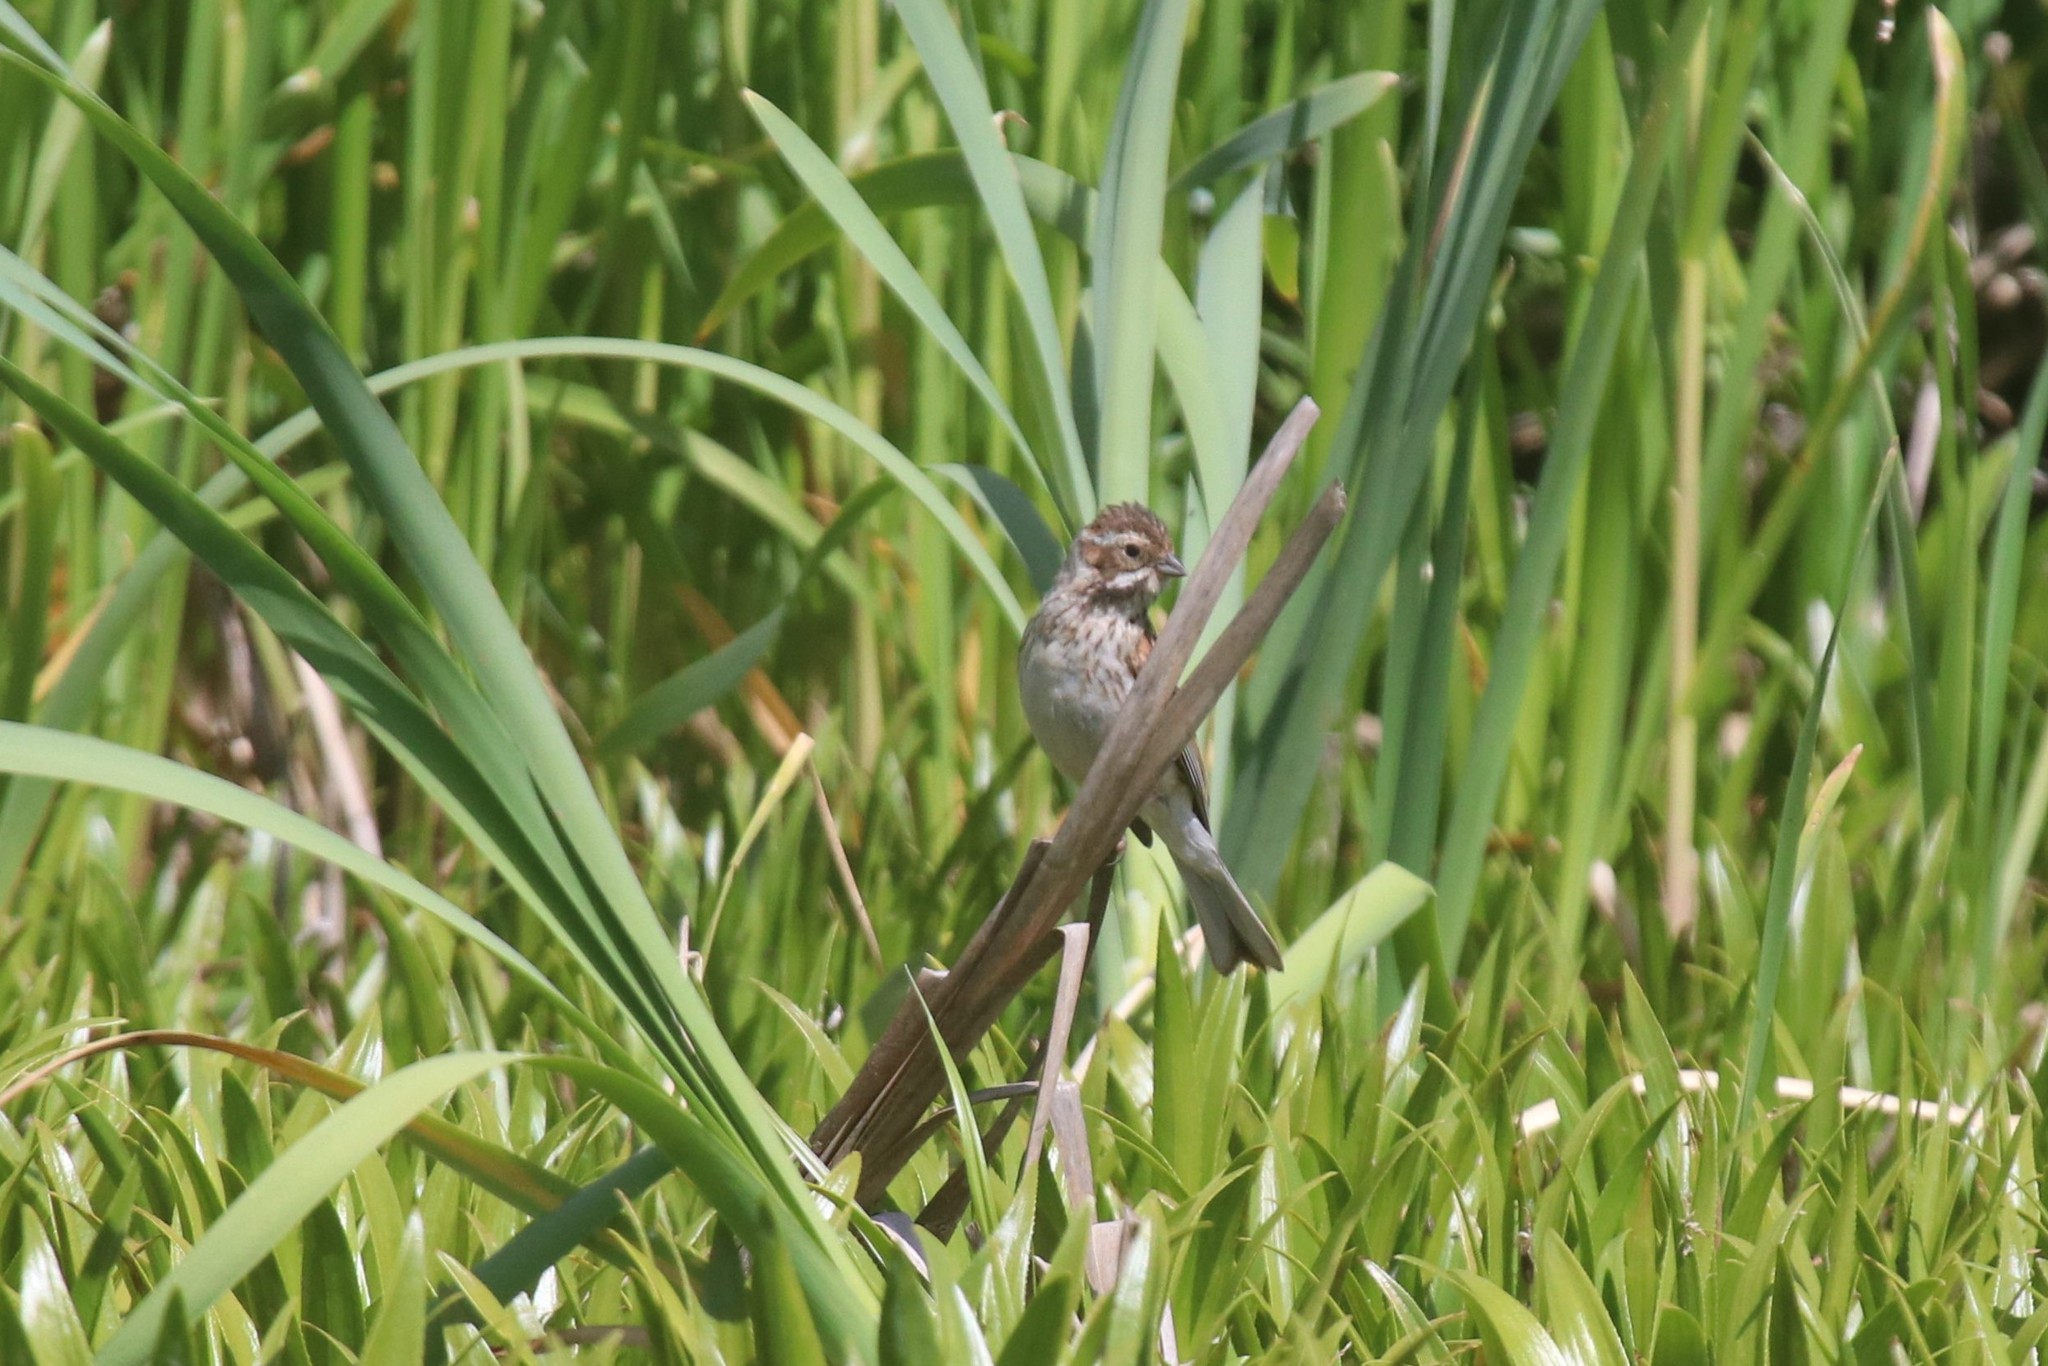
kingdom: Animalia
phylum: Chordata
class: Aves
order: Passeriformes
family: Emberizidae
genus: Emberiza
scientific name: Emberiza schoeniclus
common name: Reed bunting
